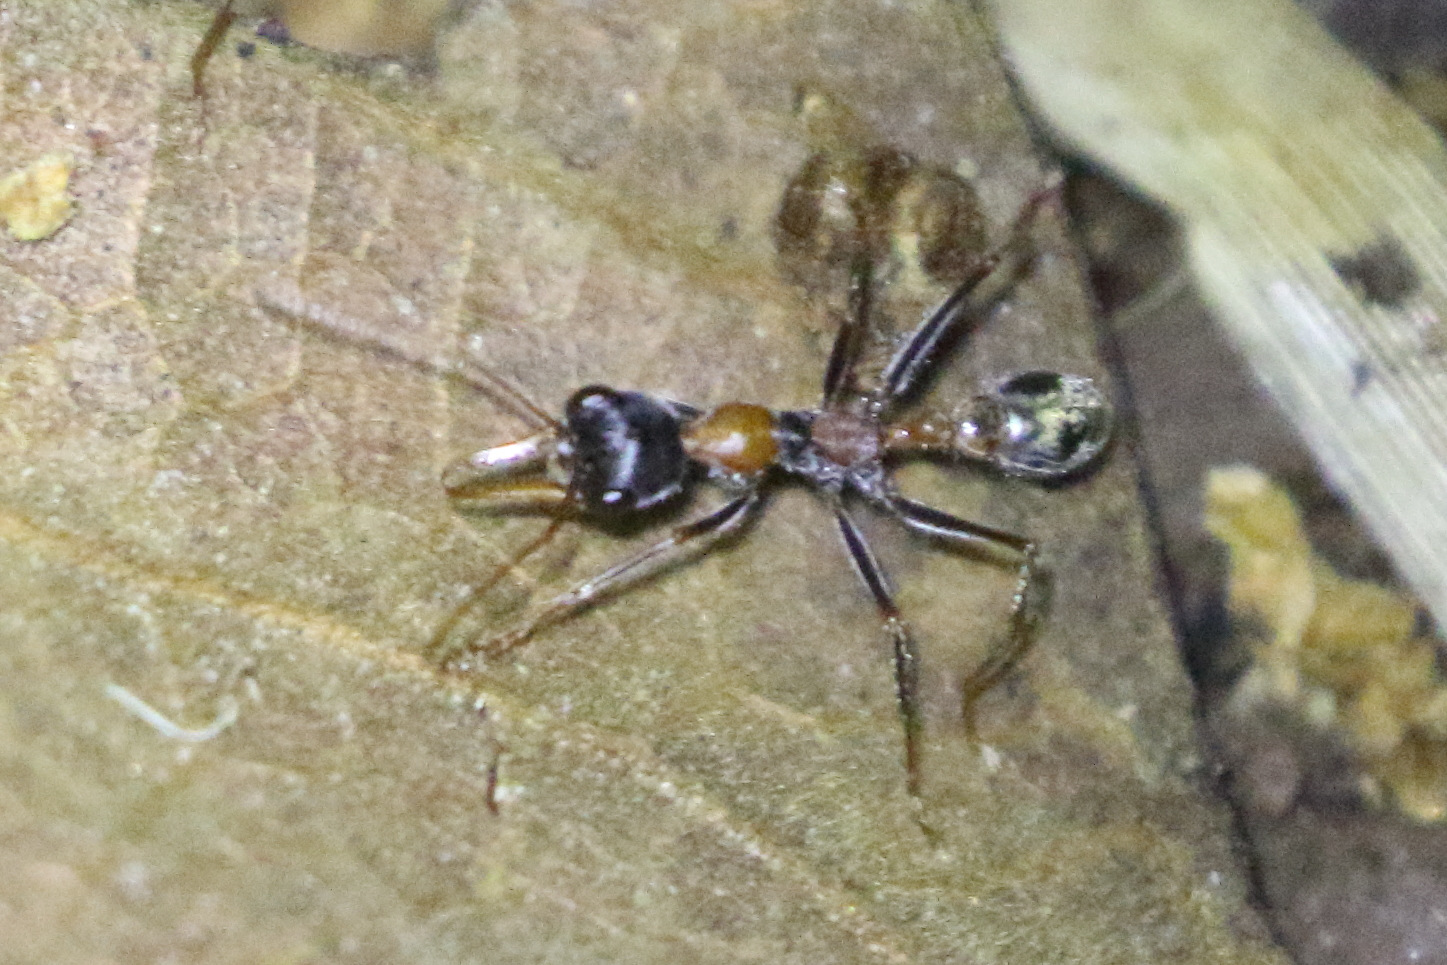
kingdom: Animalia
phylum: Arthropoda
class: Insecta
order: Hymenoptera
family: Formicidae
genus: Myrmecia
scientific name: Myrmecia nigrocincta
